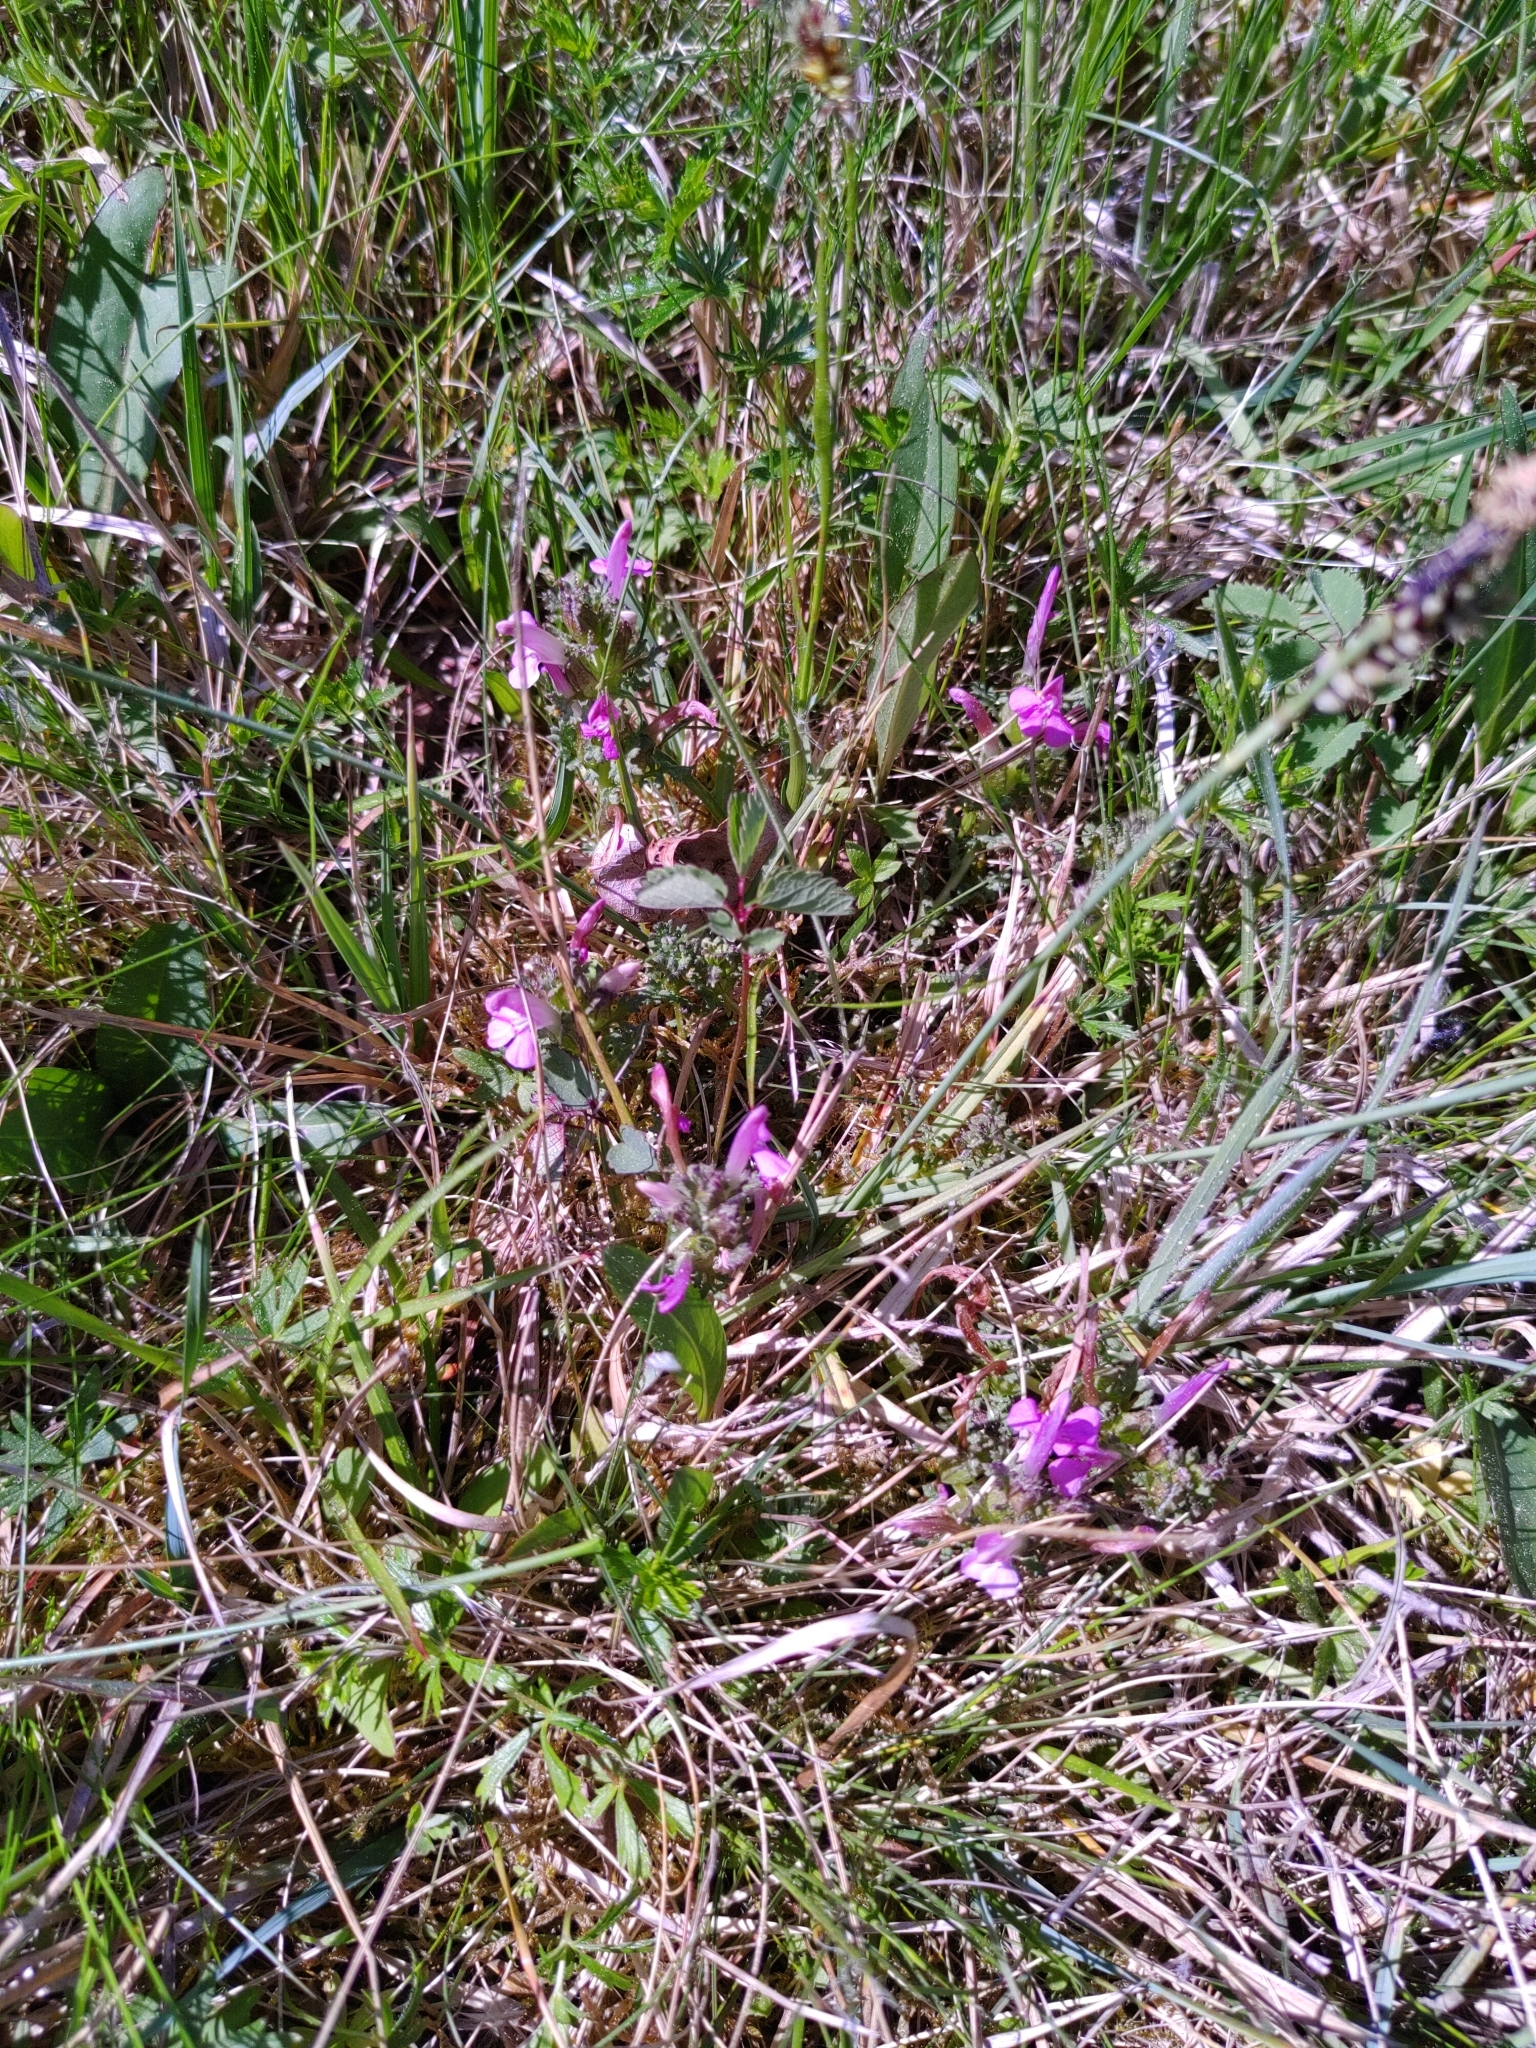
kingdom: Plantae
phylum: Tracheophyta
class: Magnoliopsida
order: Lamiales
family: Orobanchaceae
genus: Pedicularis
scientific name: Pedicularis sylvatica
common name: Lousewort
